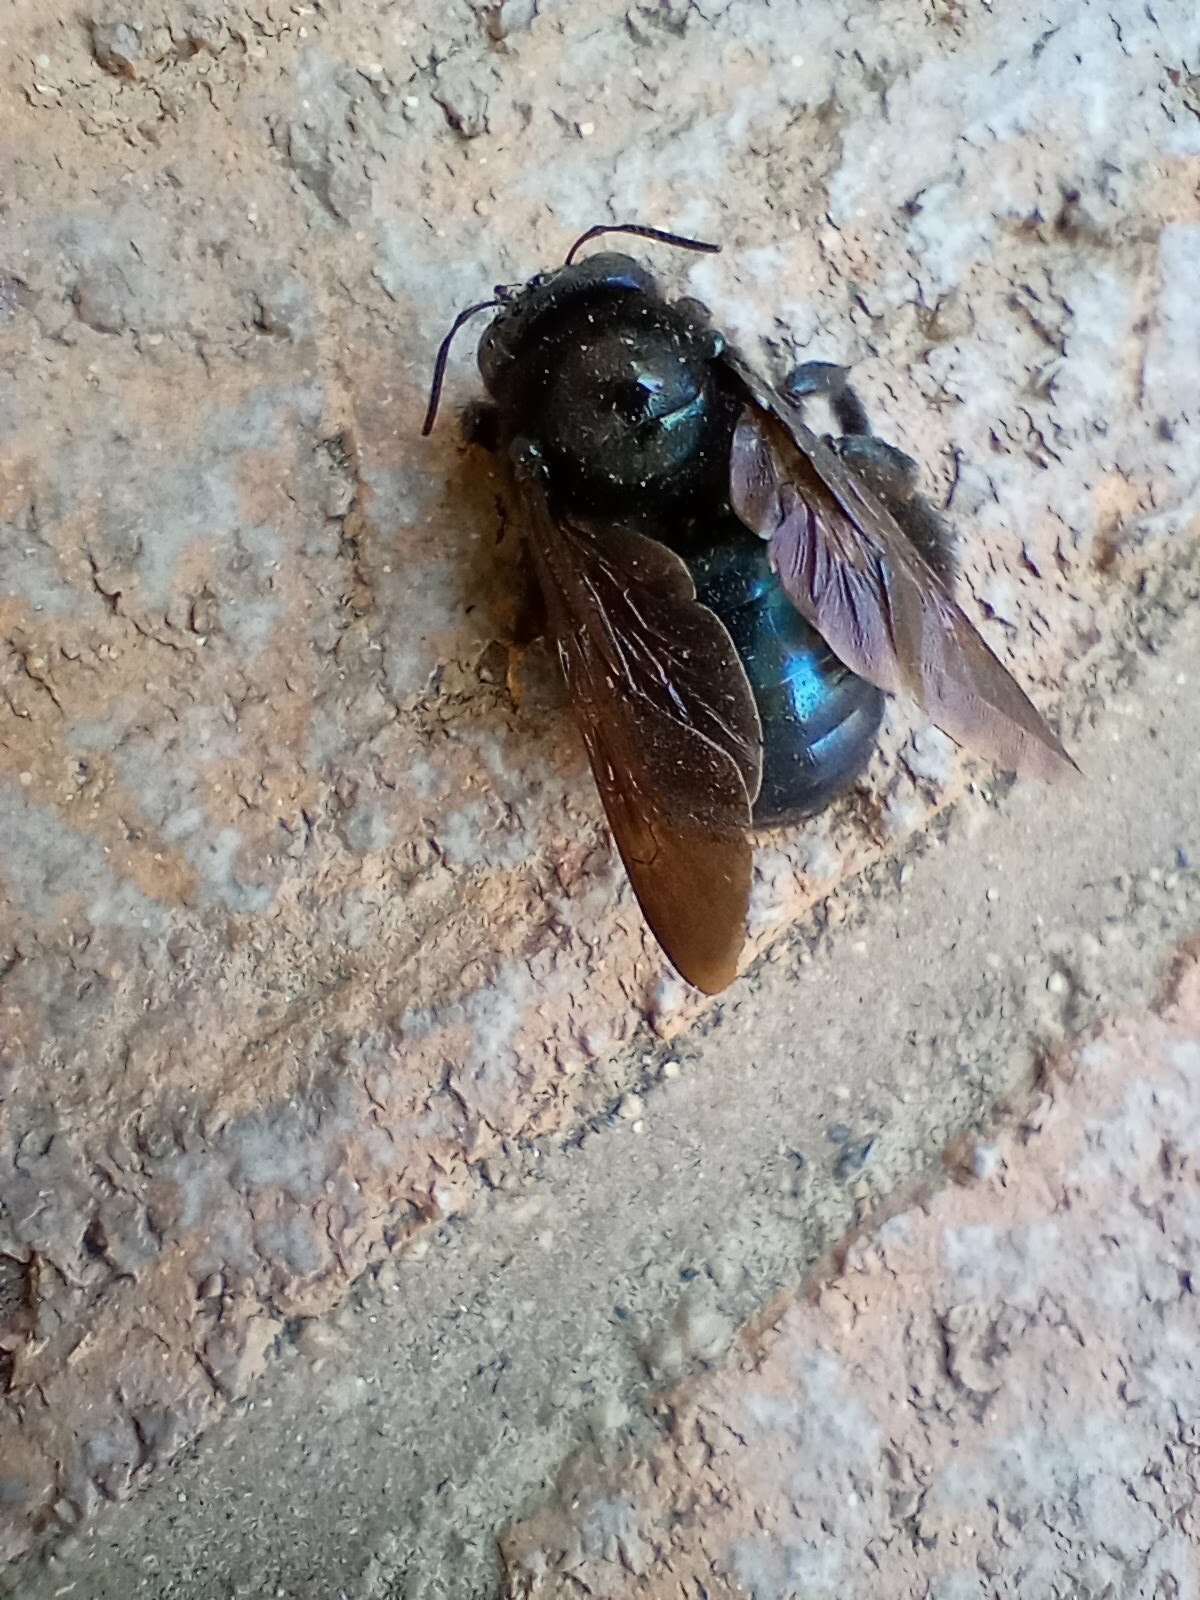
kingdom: Animalia
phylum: Arthropoda
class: Insecta
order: Hymenoptera
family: Apidae
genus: Xylocopa
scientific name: Xylocopa californica
